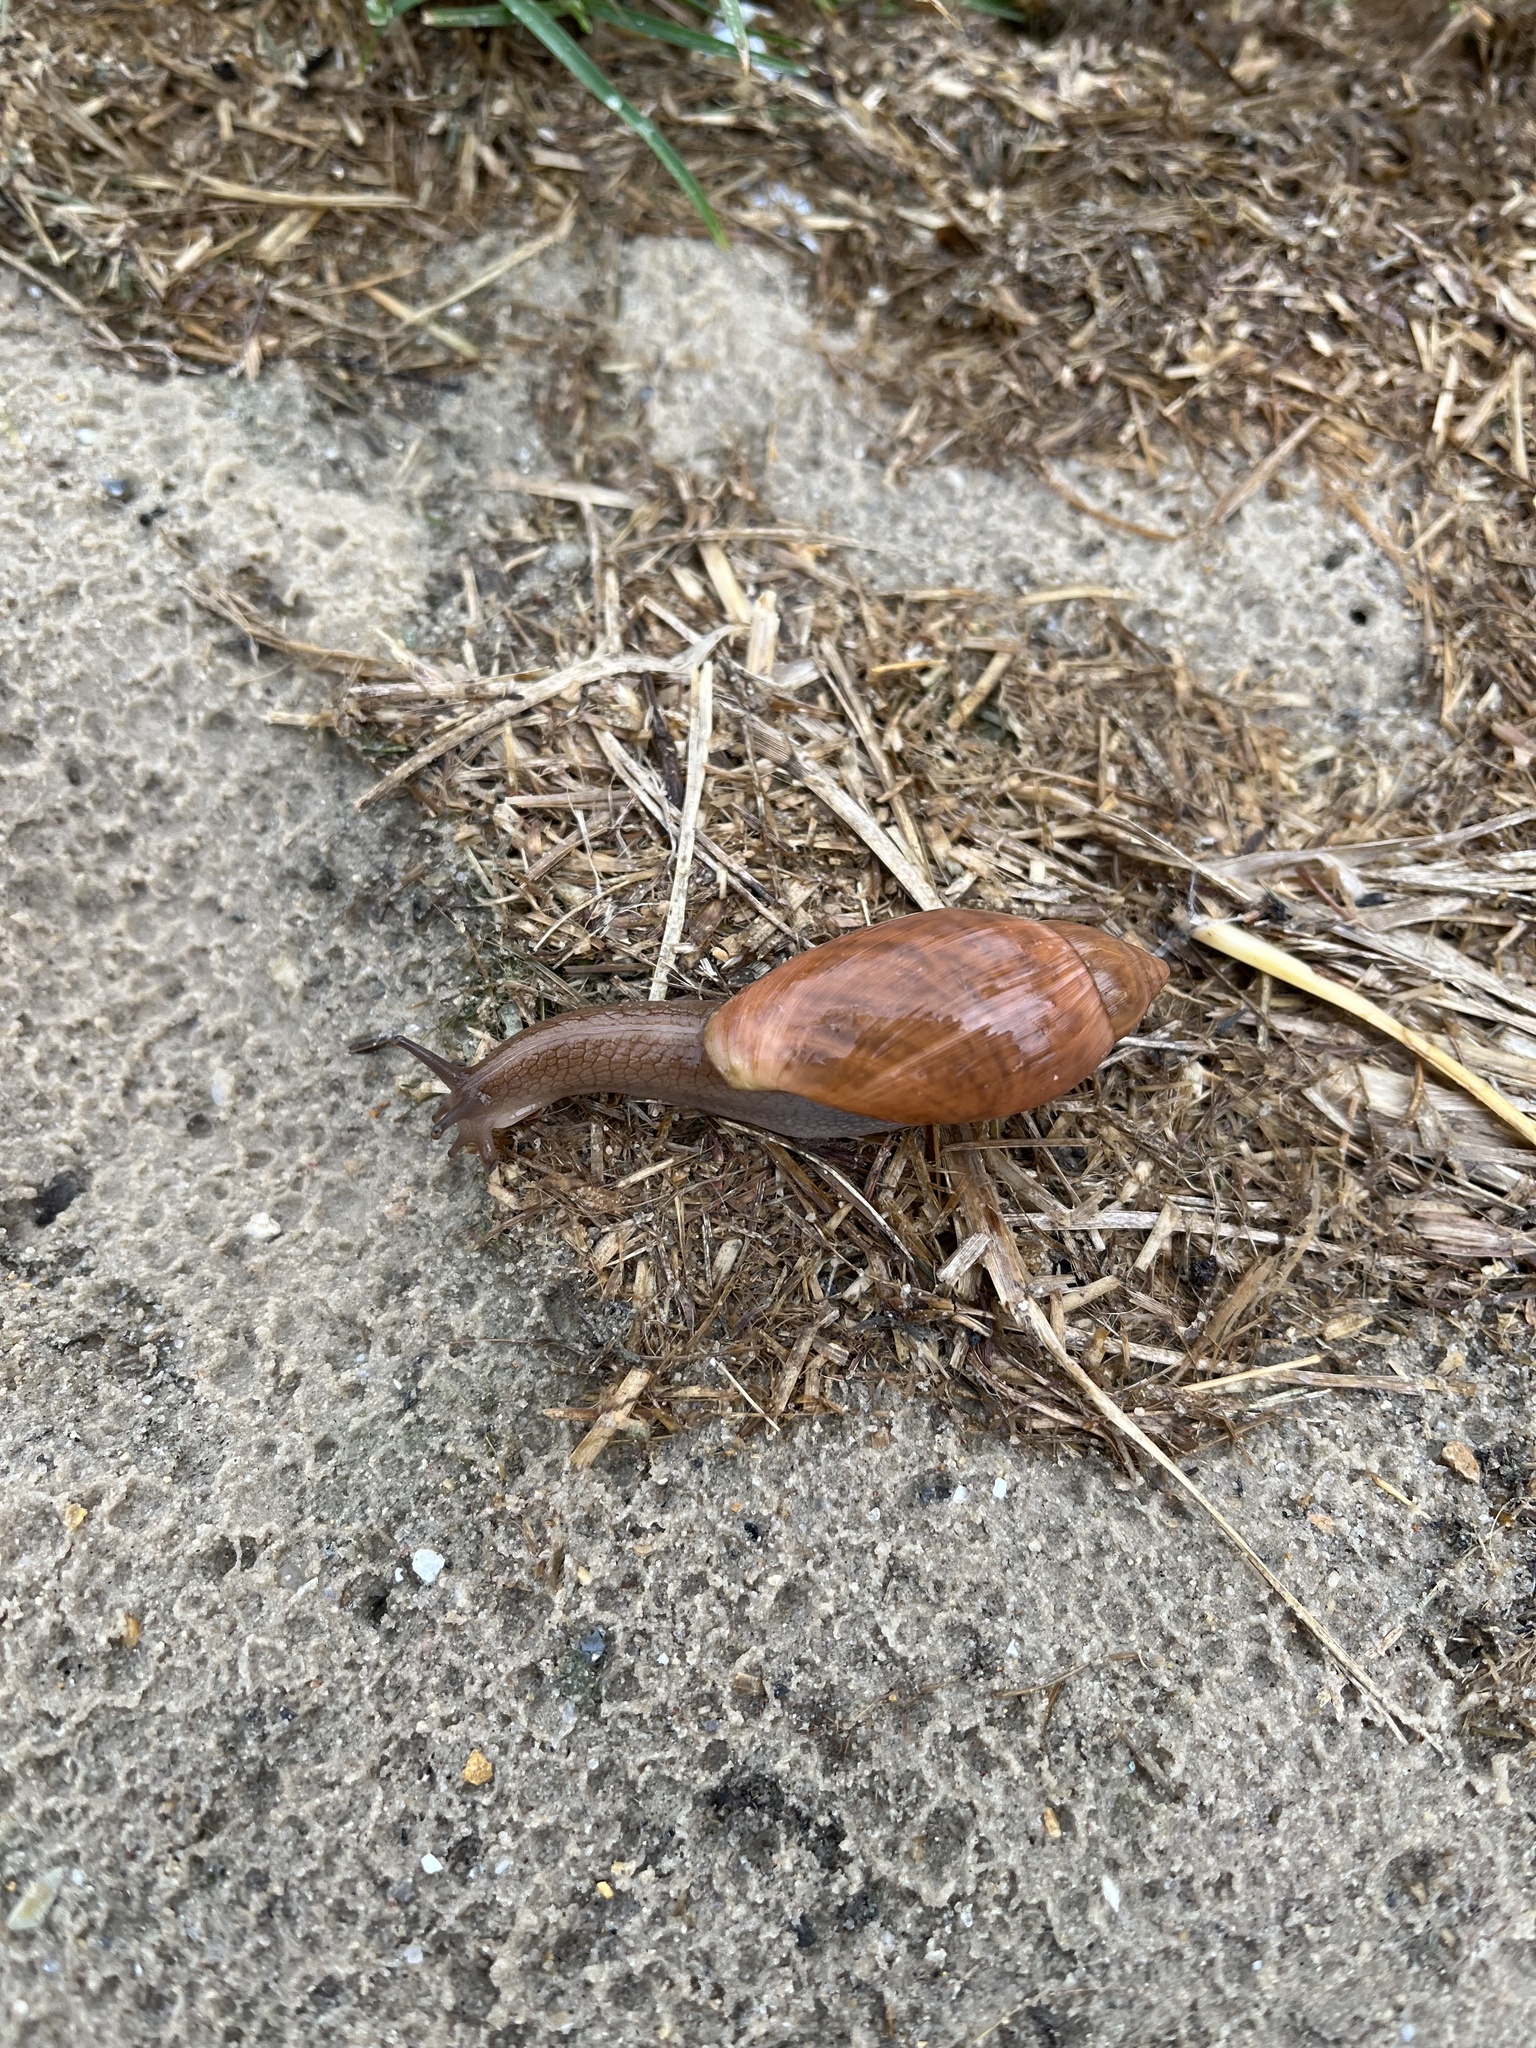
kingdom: Animalia
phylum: Mollusca
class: Gastropoda
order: Stylommatophora
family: Spiraxidae
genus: Euglandina
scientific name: Euglandina rosea
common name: Rosy wolfsnail
